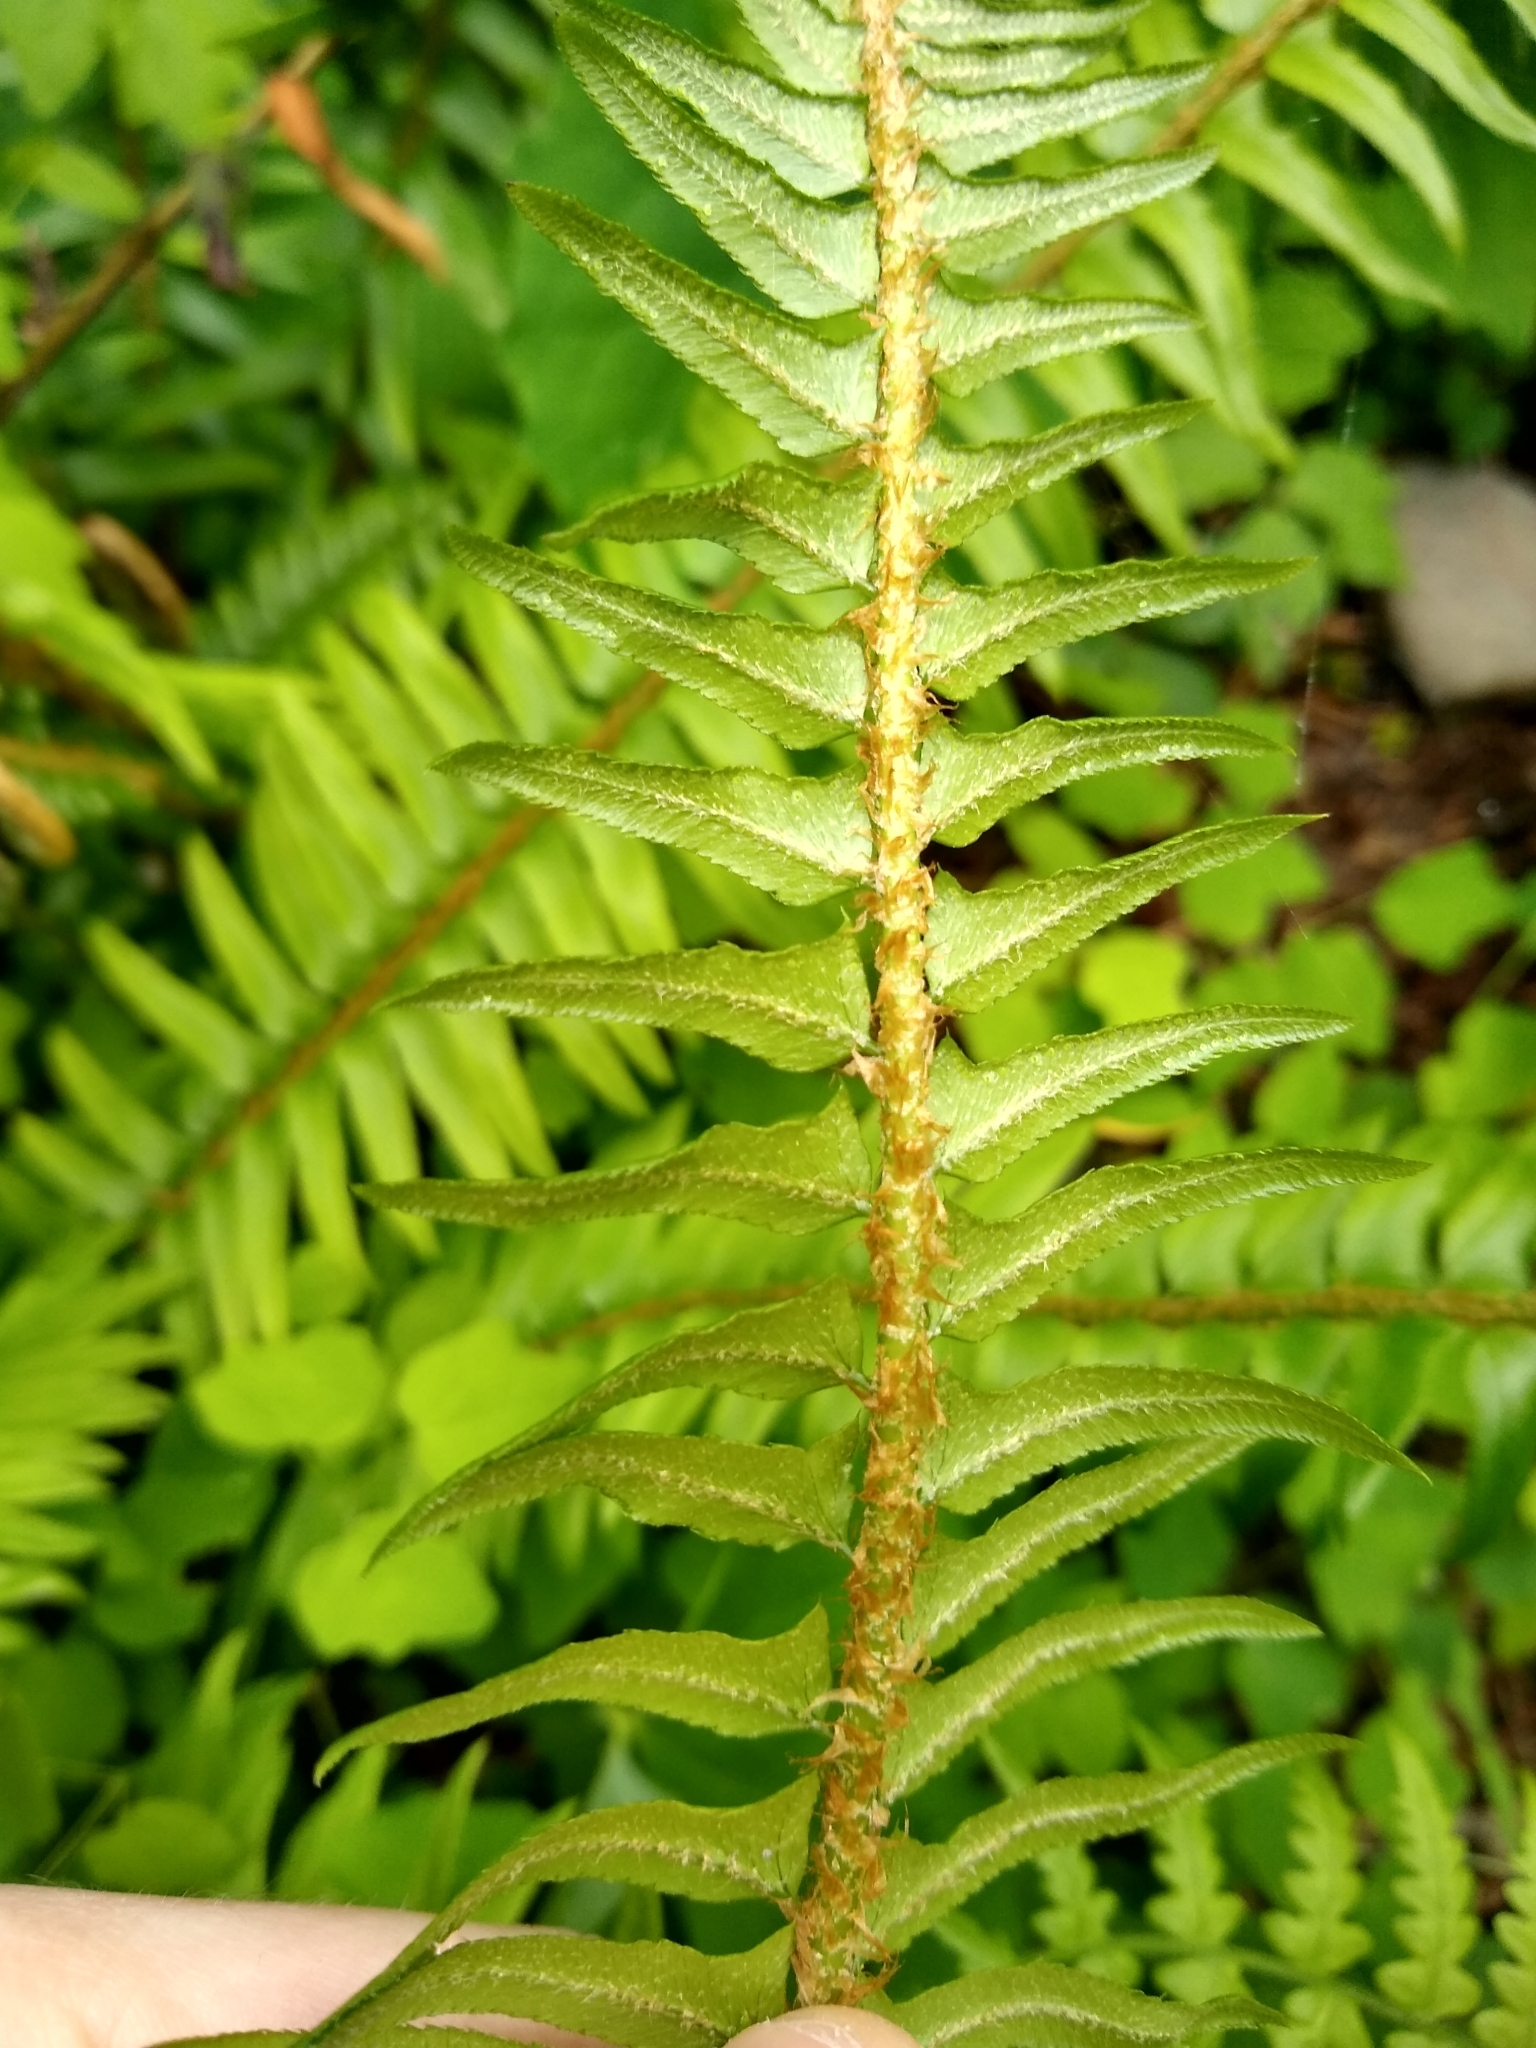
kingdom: Plantae
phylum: Tracheophyta
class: Polypodiopsida
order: Polypodiales
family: Dryopteridaceae
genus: Polystichum
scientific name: Polystichum munitum
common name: Western sword-fern
